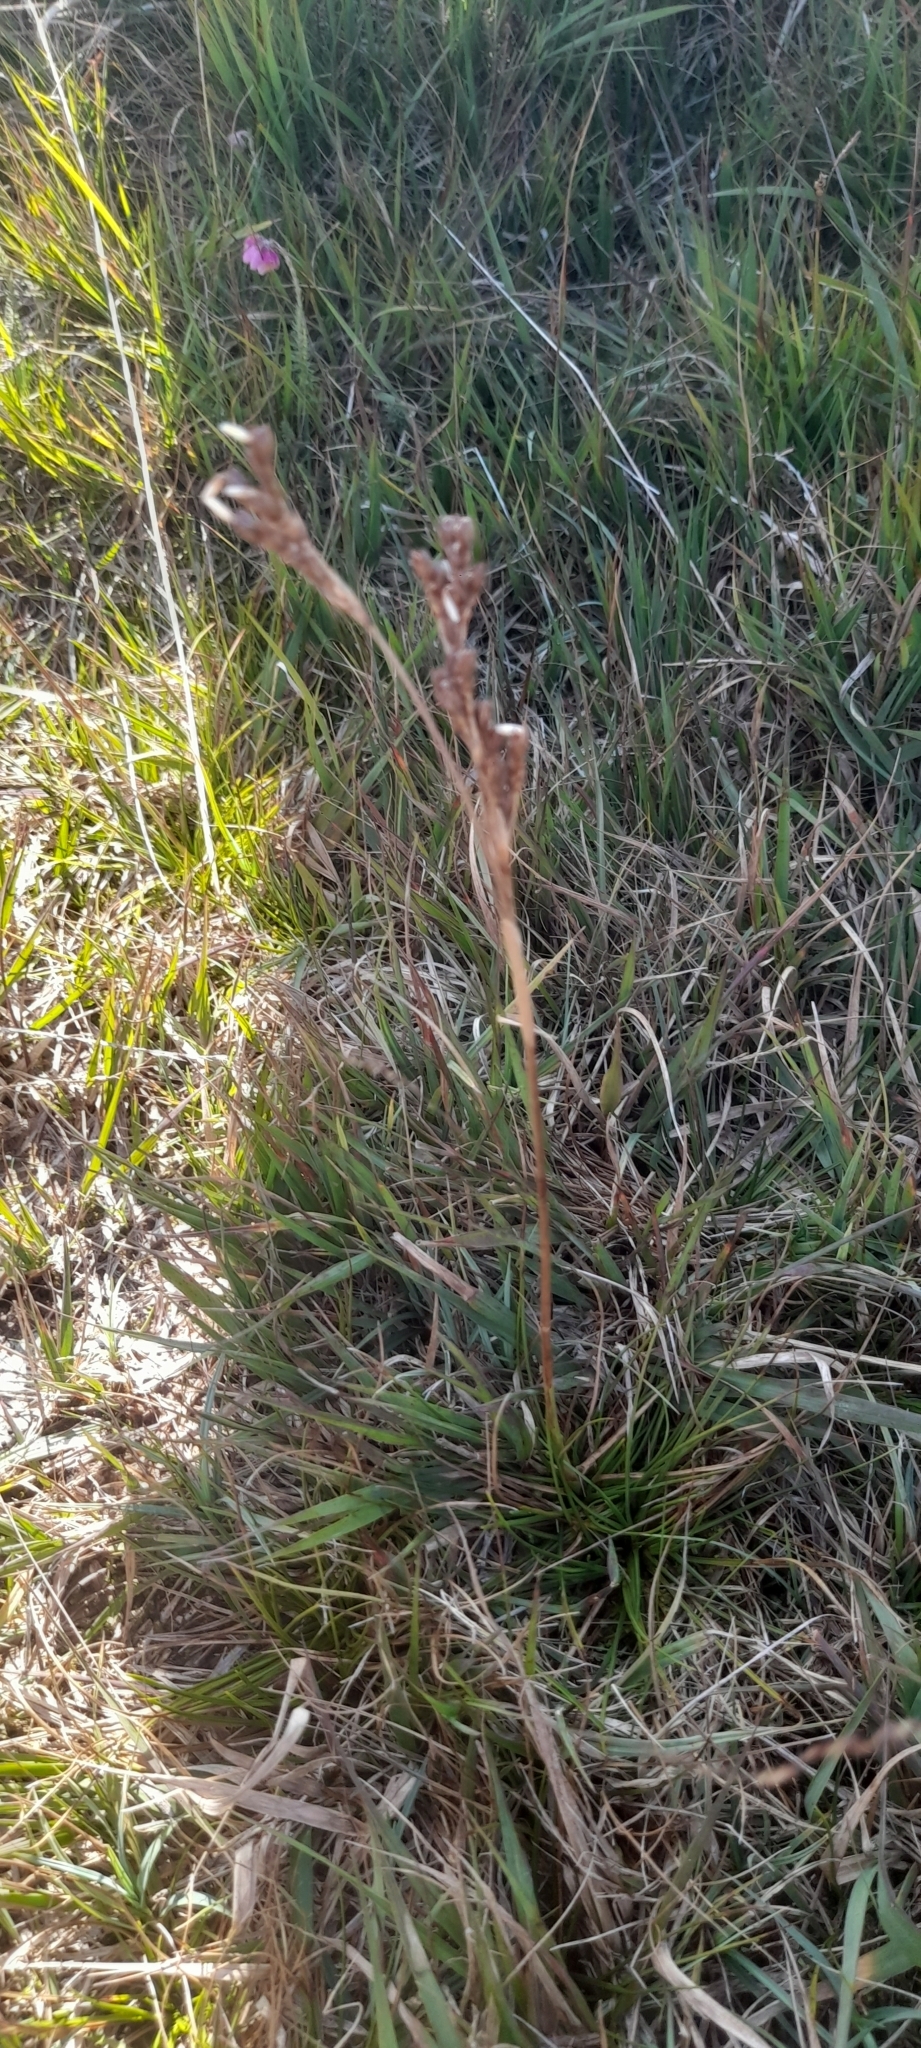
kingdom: Plantae
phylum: Tracheophyta
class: Liliopsida
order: Poales
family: Juncaceae
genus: Juncus
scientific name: Juncus squarrosus
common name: Heath rush
